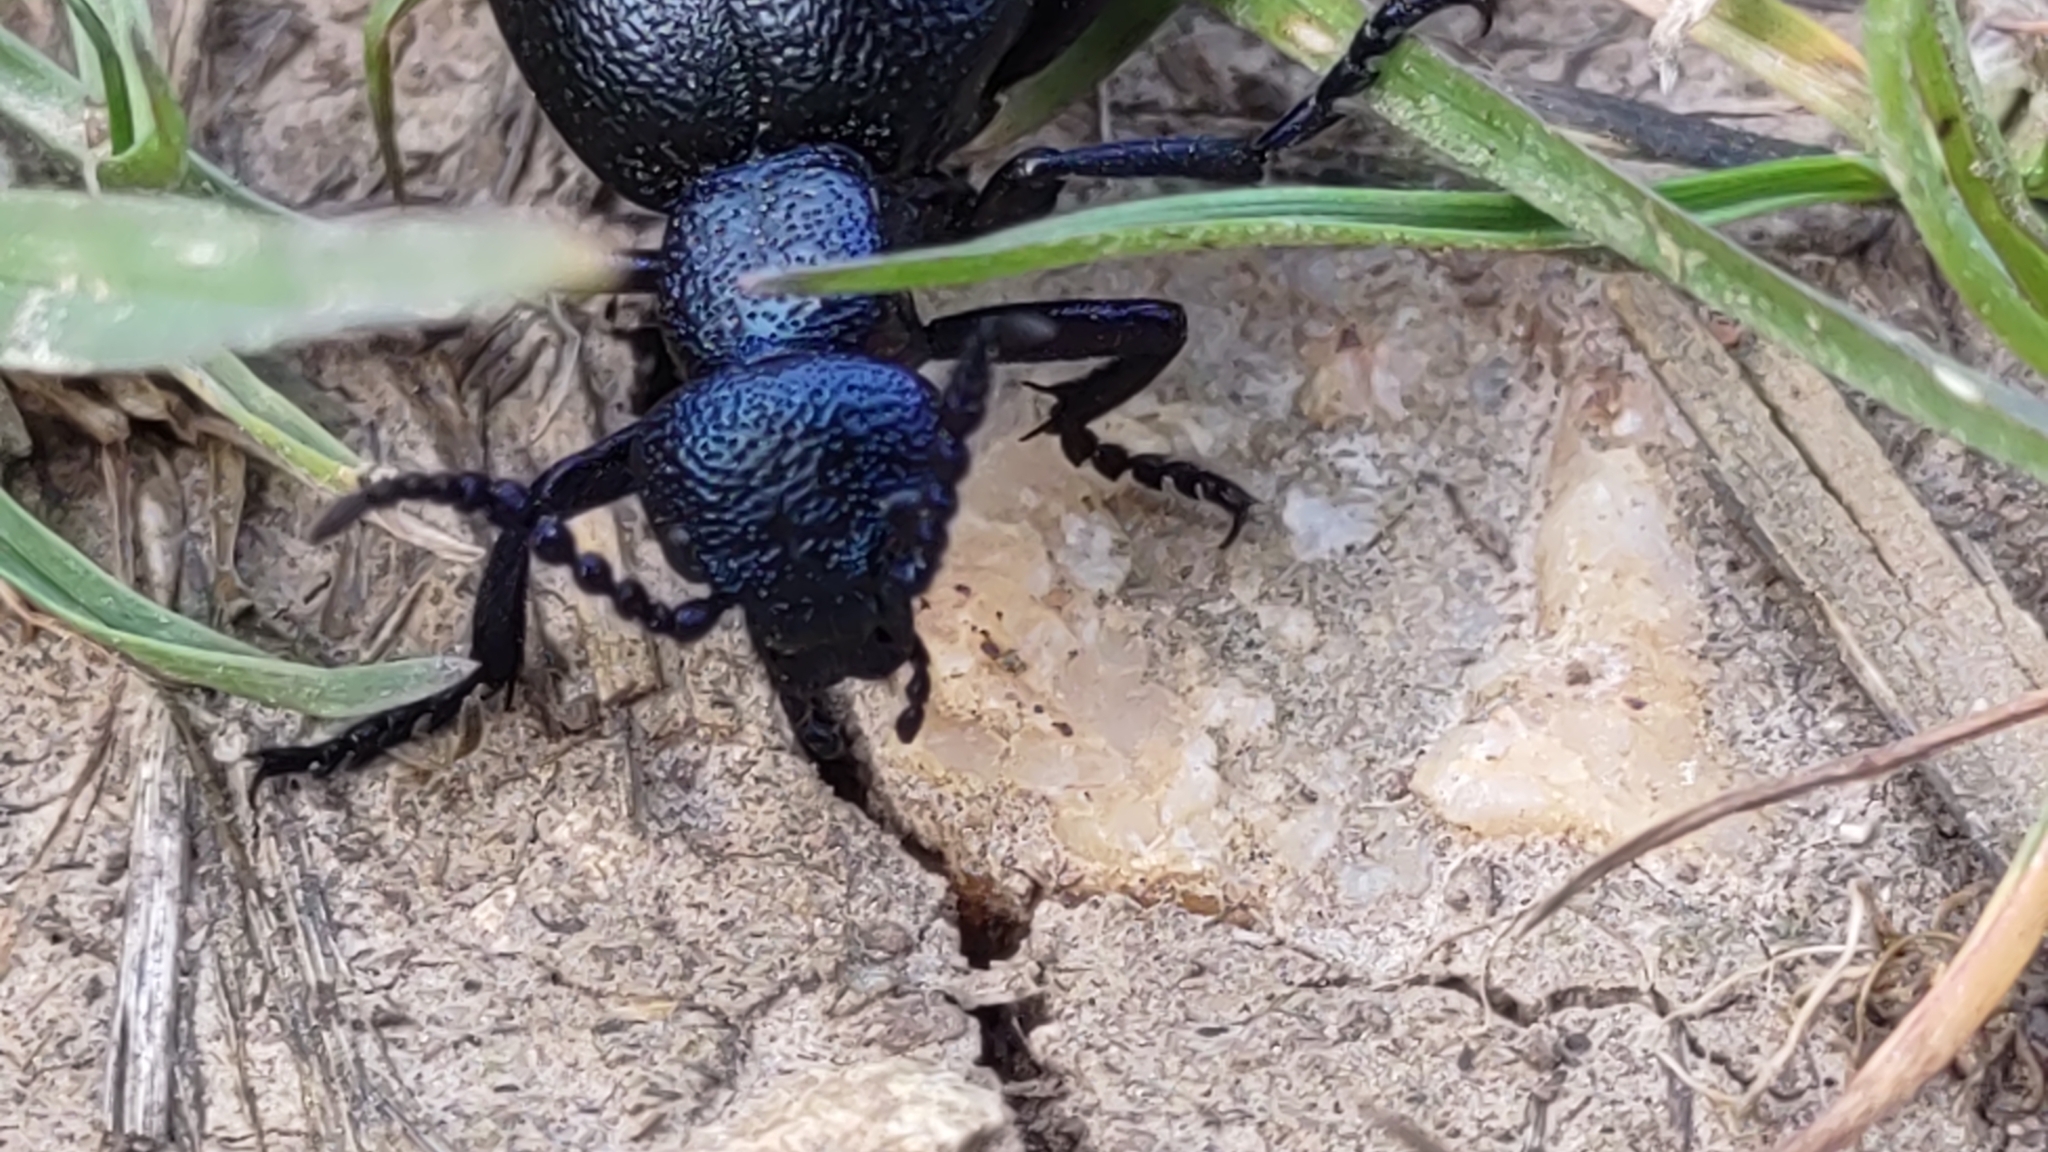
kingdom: Animalia
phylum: Arthropoda
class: Insecta
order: Coleoptera
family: Meloidae
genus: Meloe
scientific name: Meloe proscarabaeus
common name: Black oil-beetle
